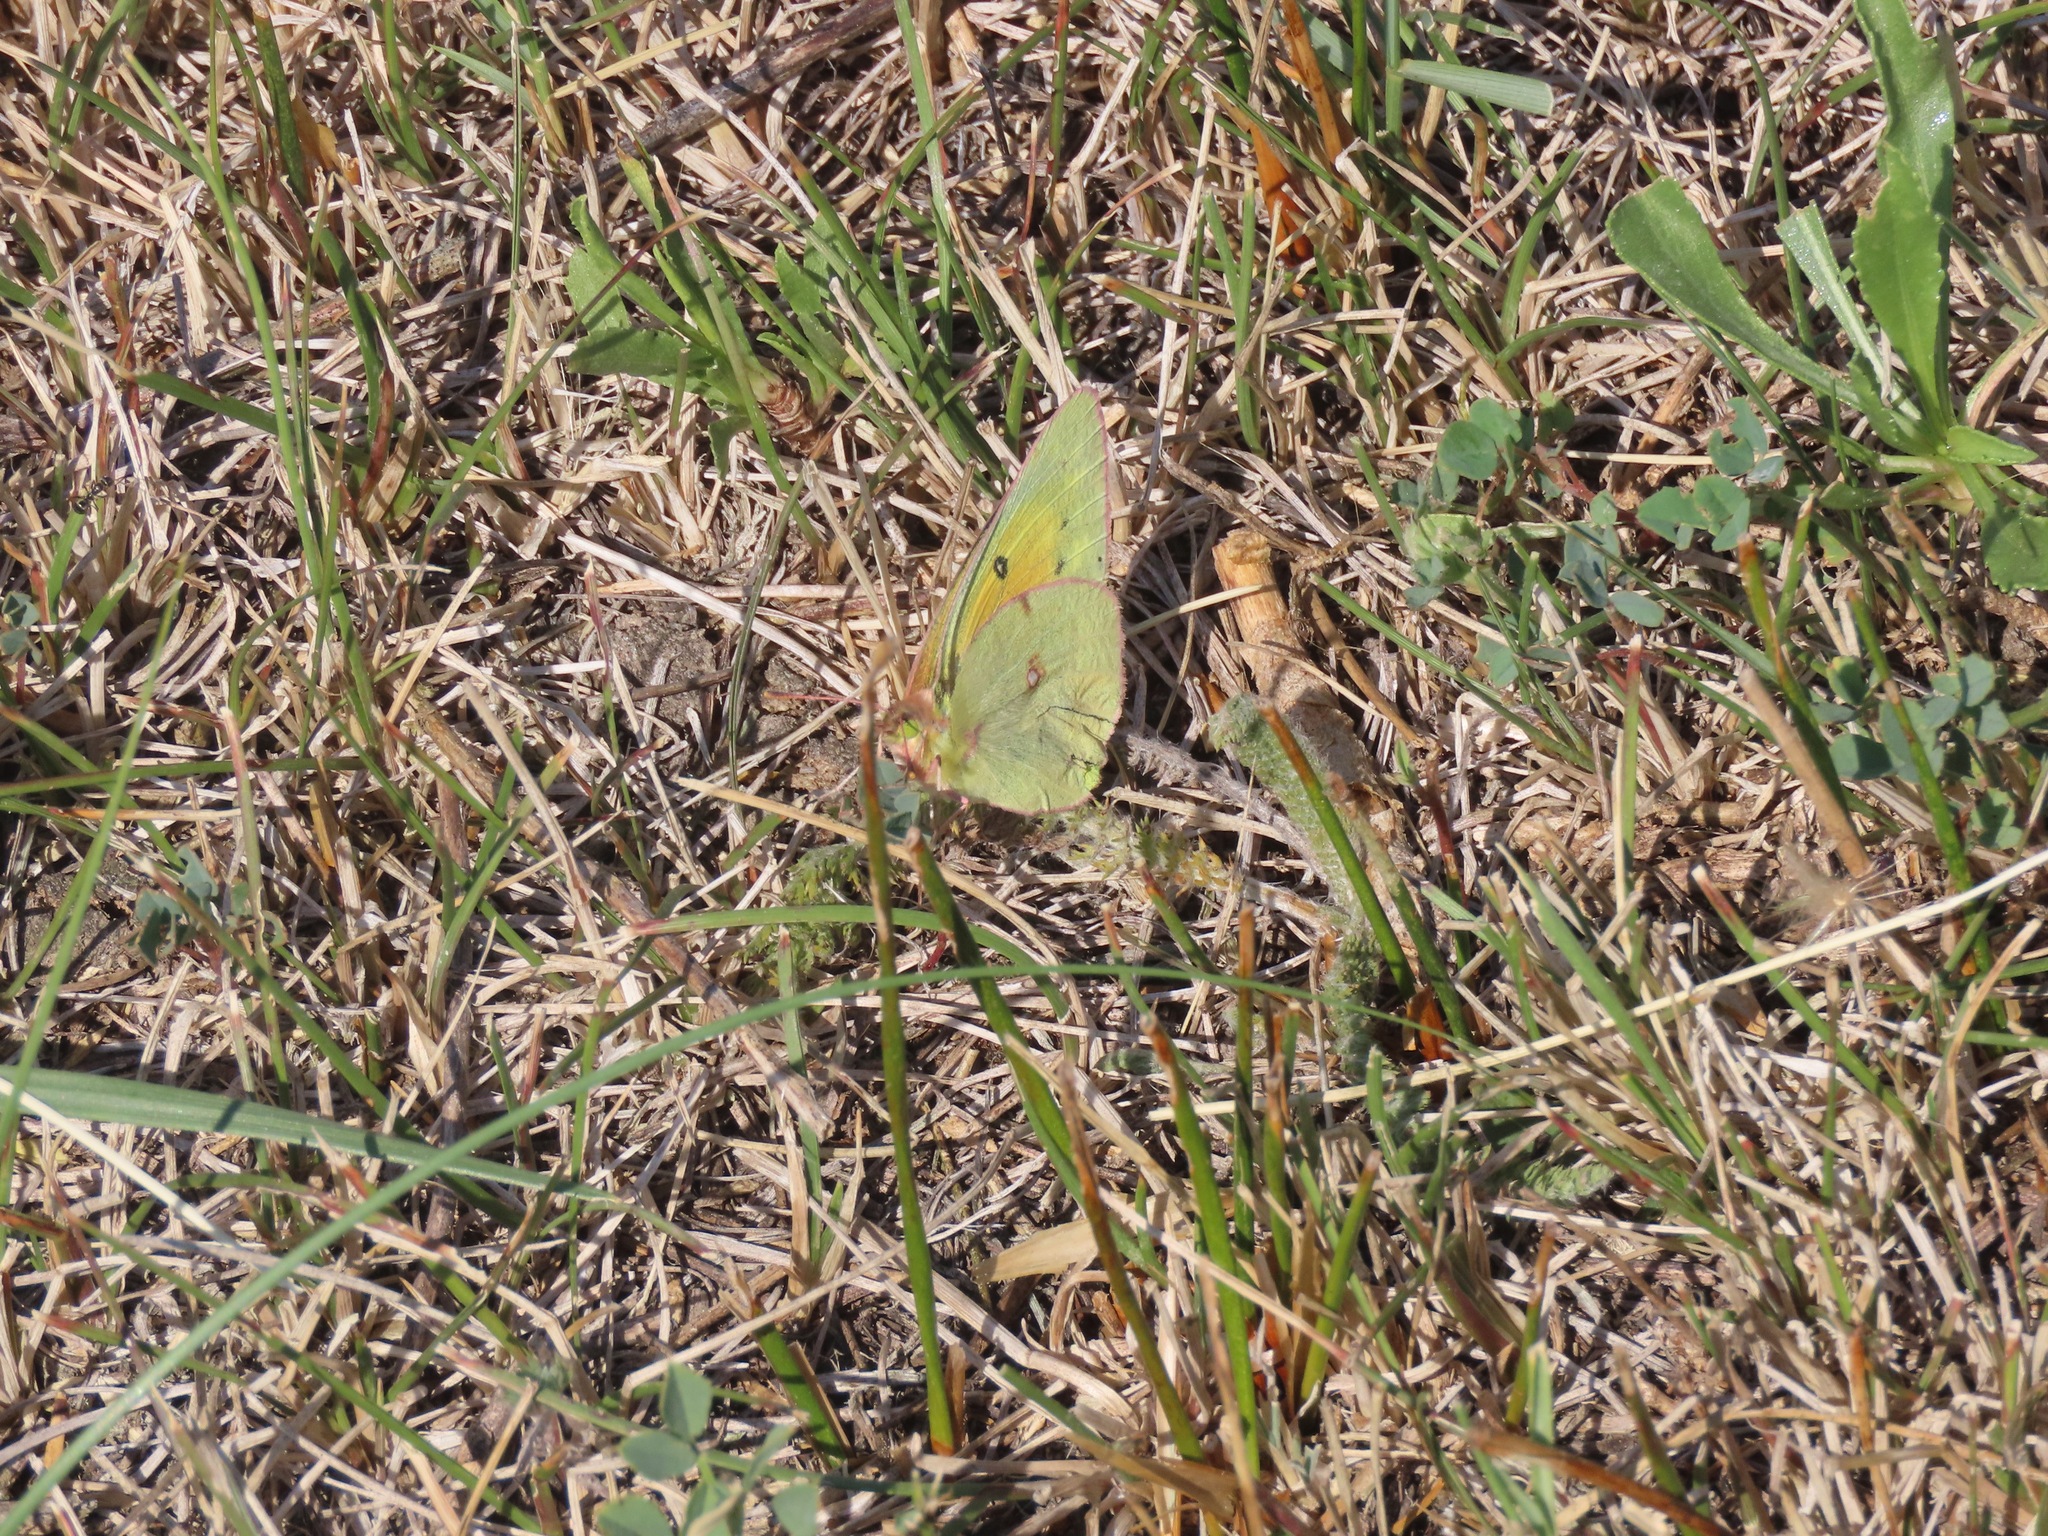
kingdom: Animalia
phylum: Arthropoda
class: Insecta
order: Lepidoptera
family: Pieridae
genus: Colias
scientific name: Colias eurytheme
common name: Alfalfa butterfly
